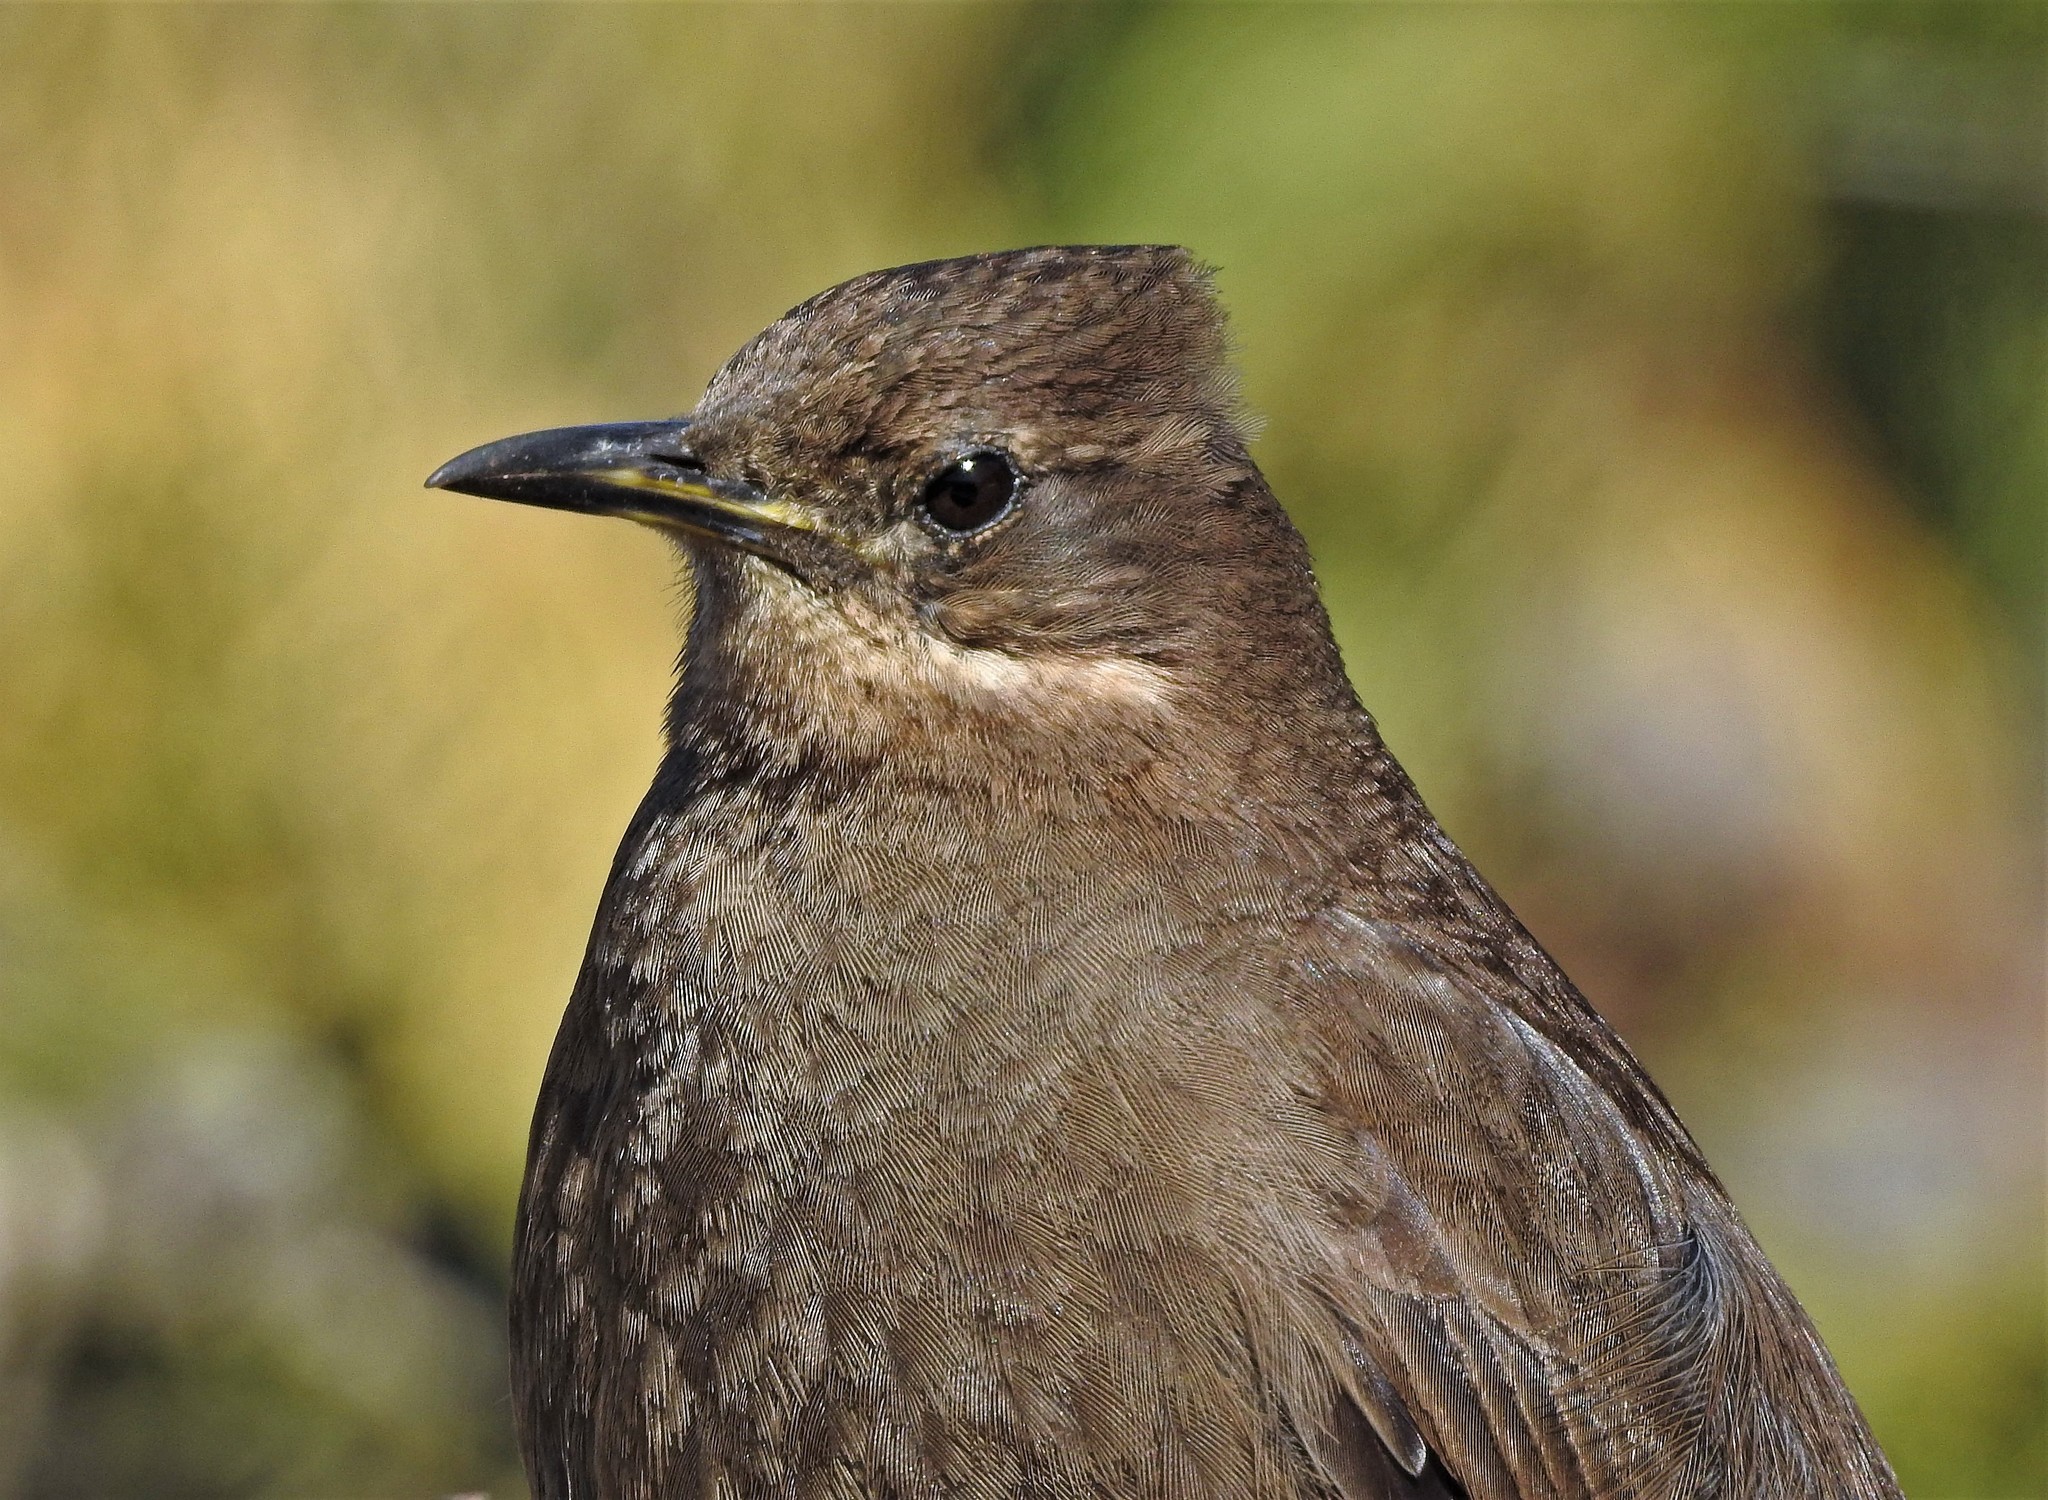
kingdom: Animalia
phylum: Chordata
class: Aves
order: Passeriformes
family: Furnariidae
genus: Cinclodes
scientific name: Cinclodes antarcticus
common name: Blackish cinclodes
